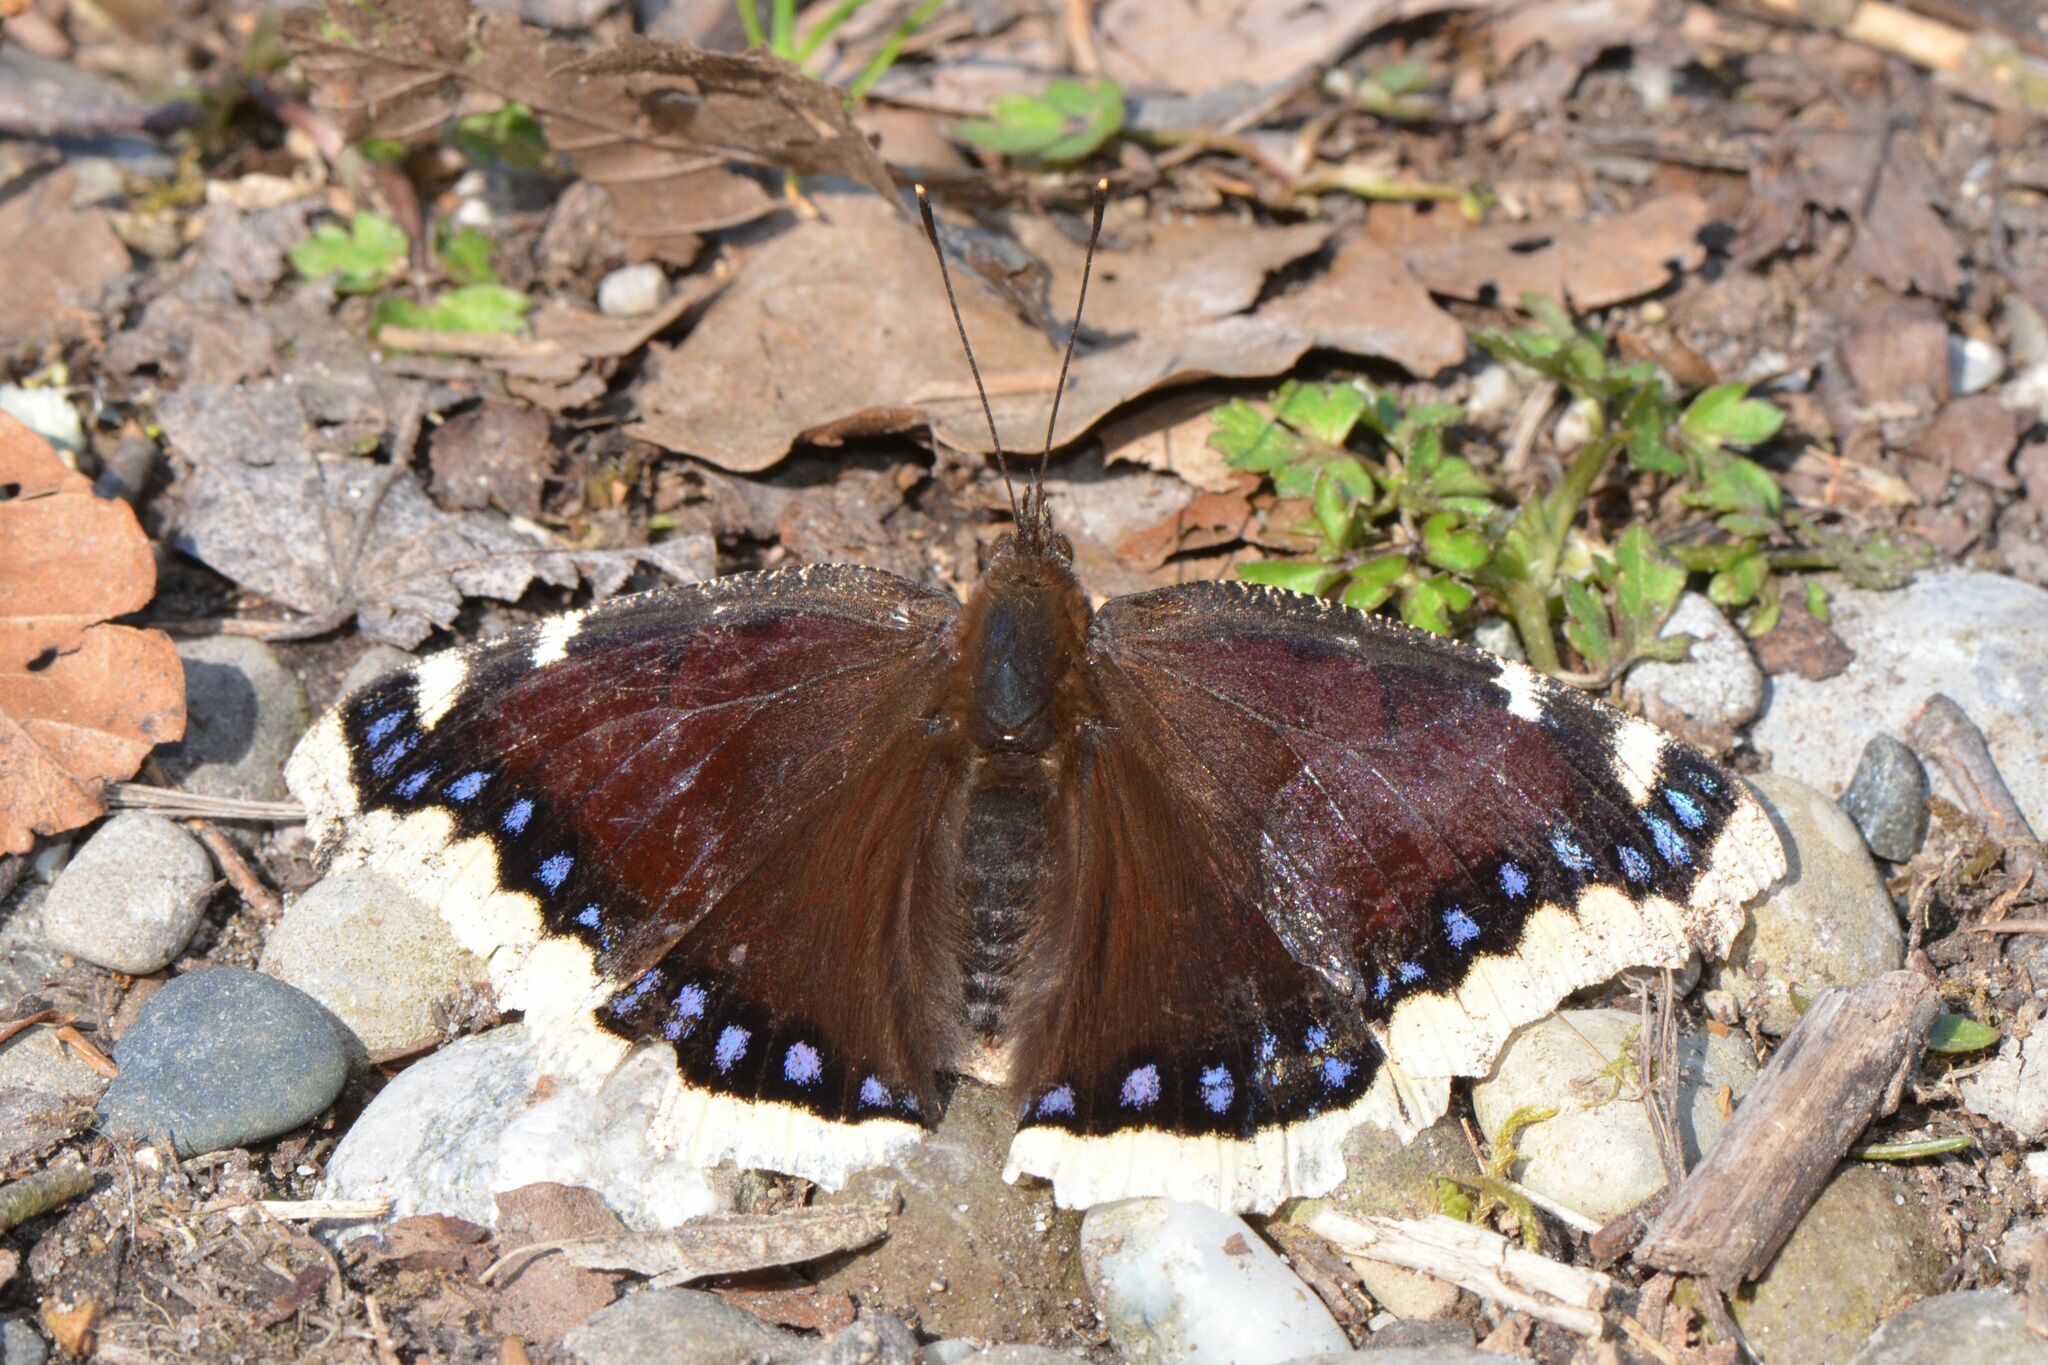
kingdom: Animalia
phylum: Arthropoda
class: Insecta
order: Lepidoptera
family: Nymphalidae
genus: Nymphalis
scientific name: Nymphalis antiopa
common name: Camberwell beauty
